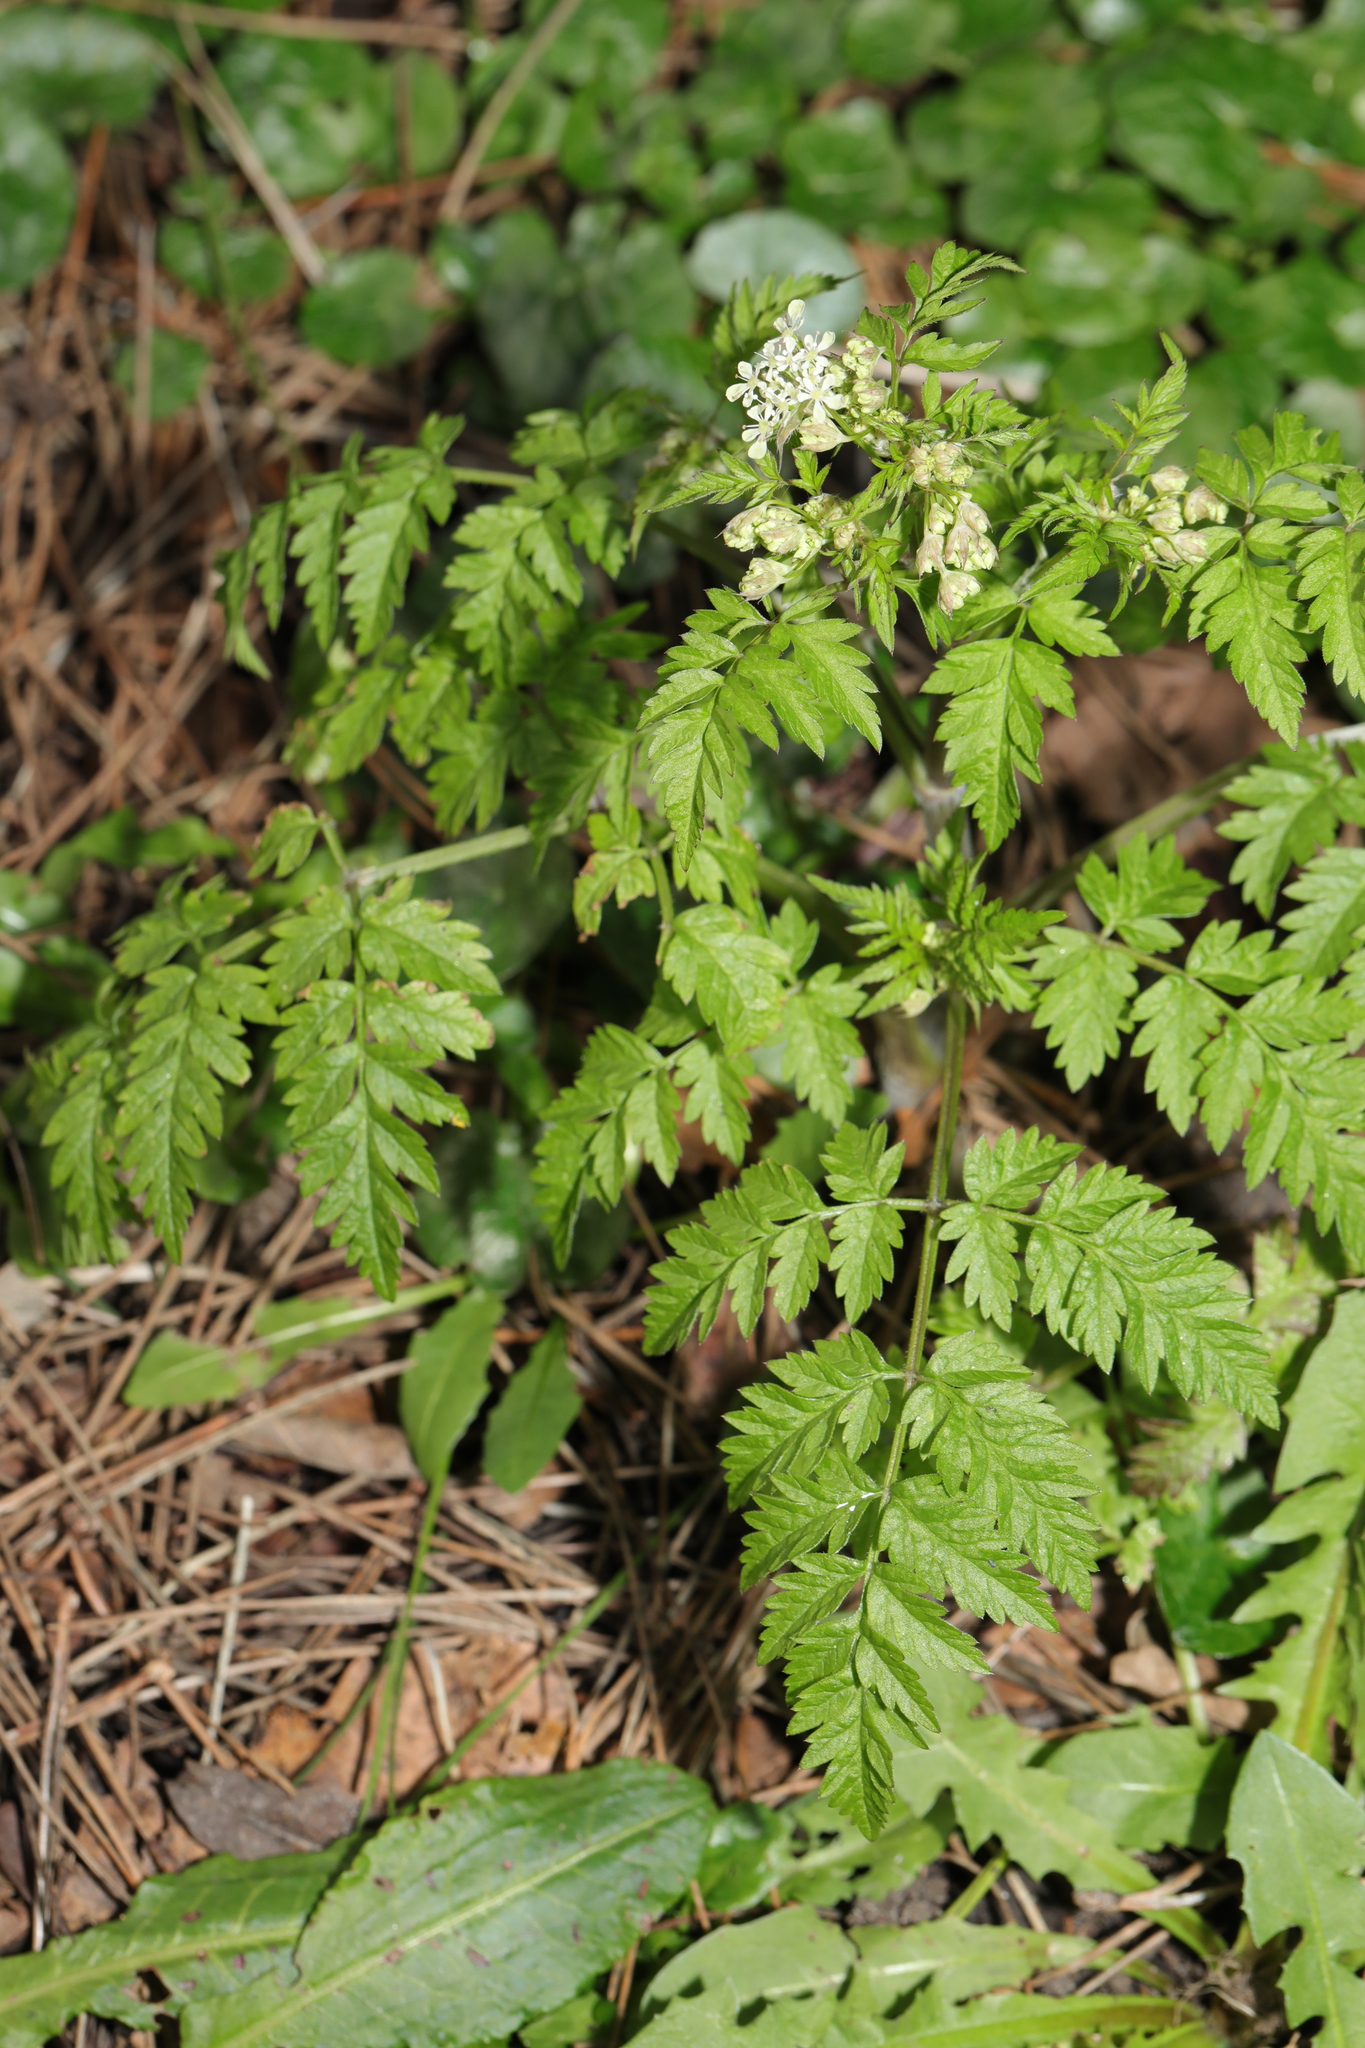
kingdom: Plantae
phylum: Tracheophyta
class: Magnoliopsida
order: Apiales
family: Apiaceae
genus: Anthriscus
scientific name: Anthriscus sylvestris
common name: Cow parsley
